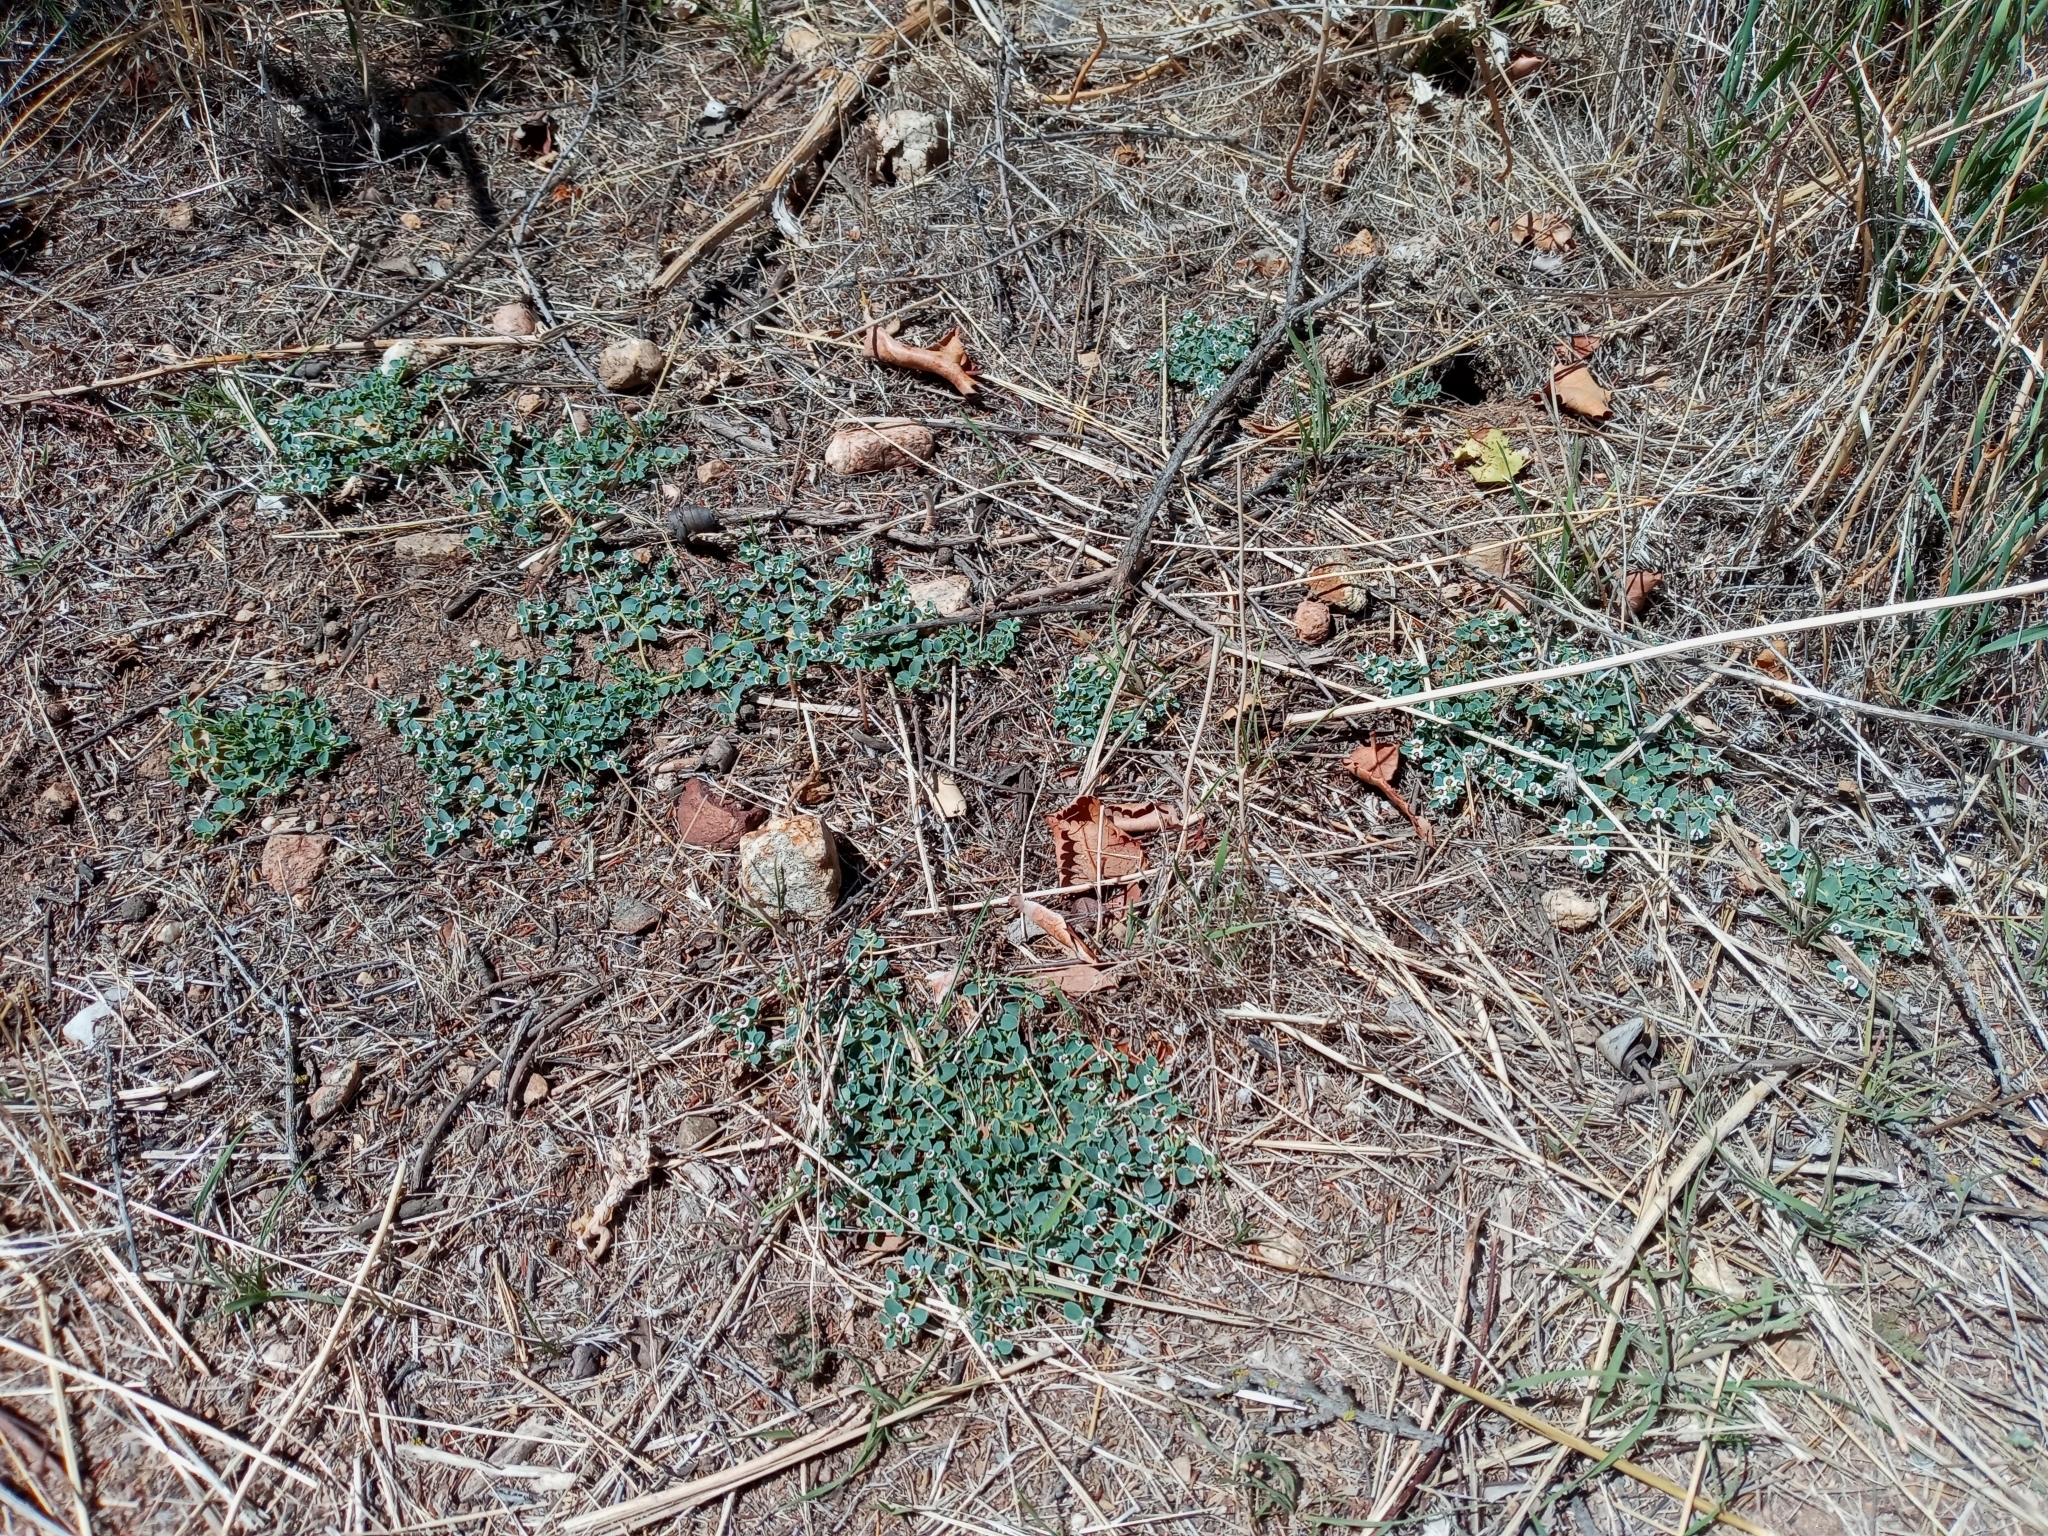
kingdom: Plantae
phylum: Tracheophyta
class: Magnoliopsida
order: Malpighiales
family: Euphorbiaceae
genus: Euphorbia
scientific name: Euphorbia albomarginata
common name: Whitemargin sandmat
